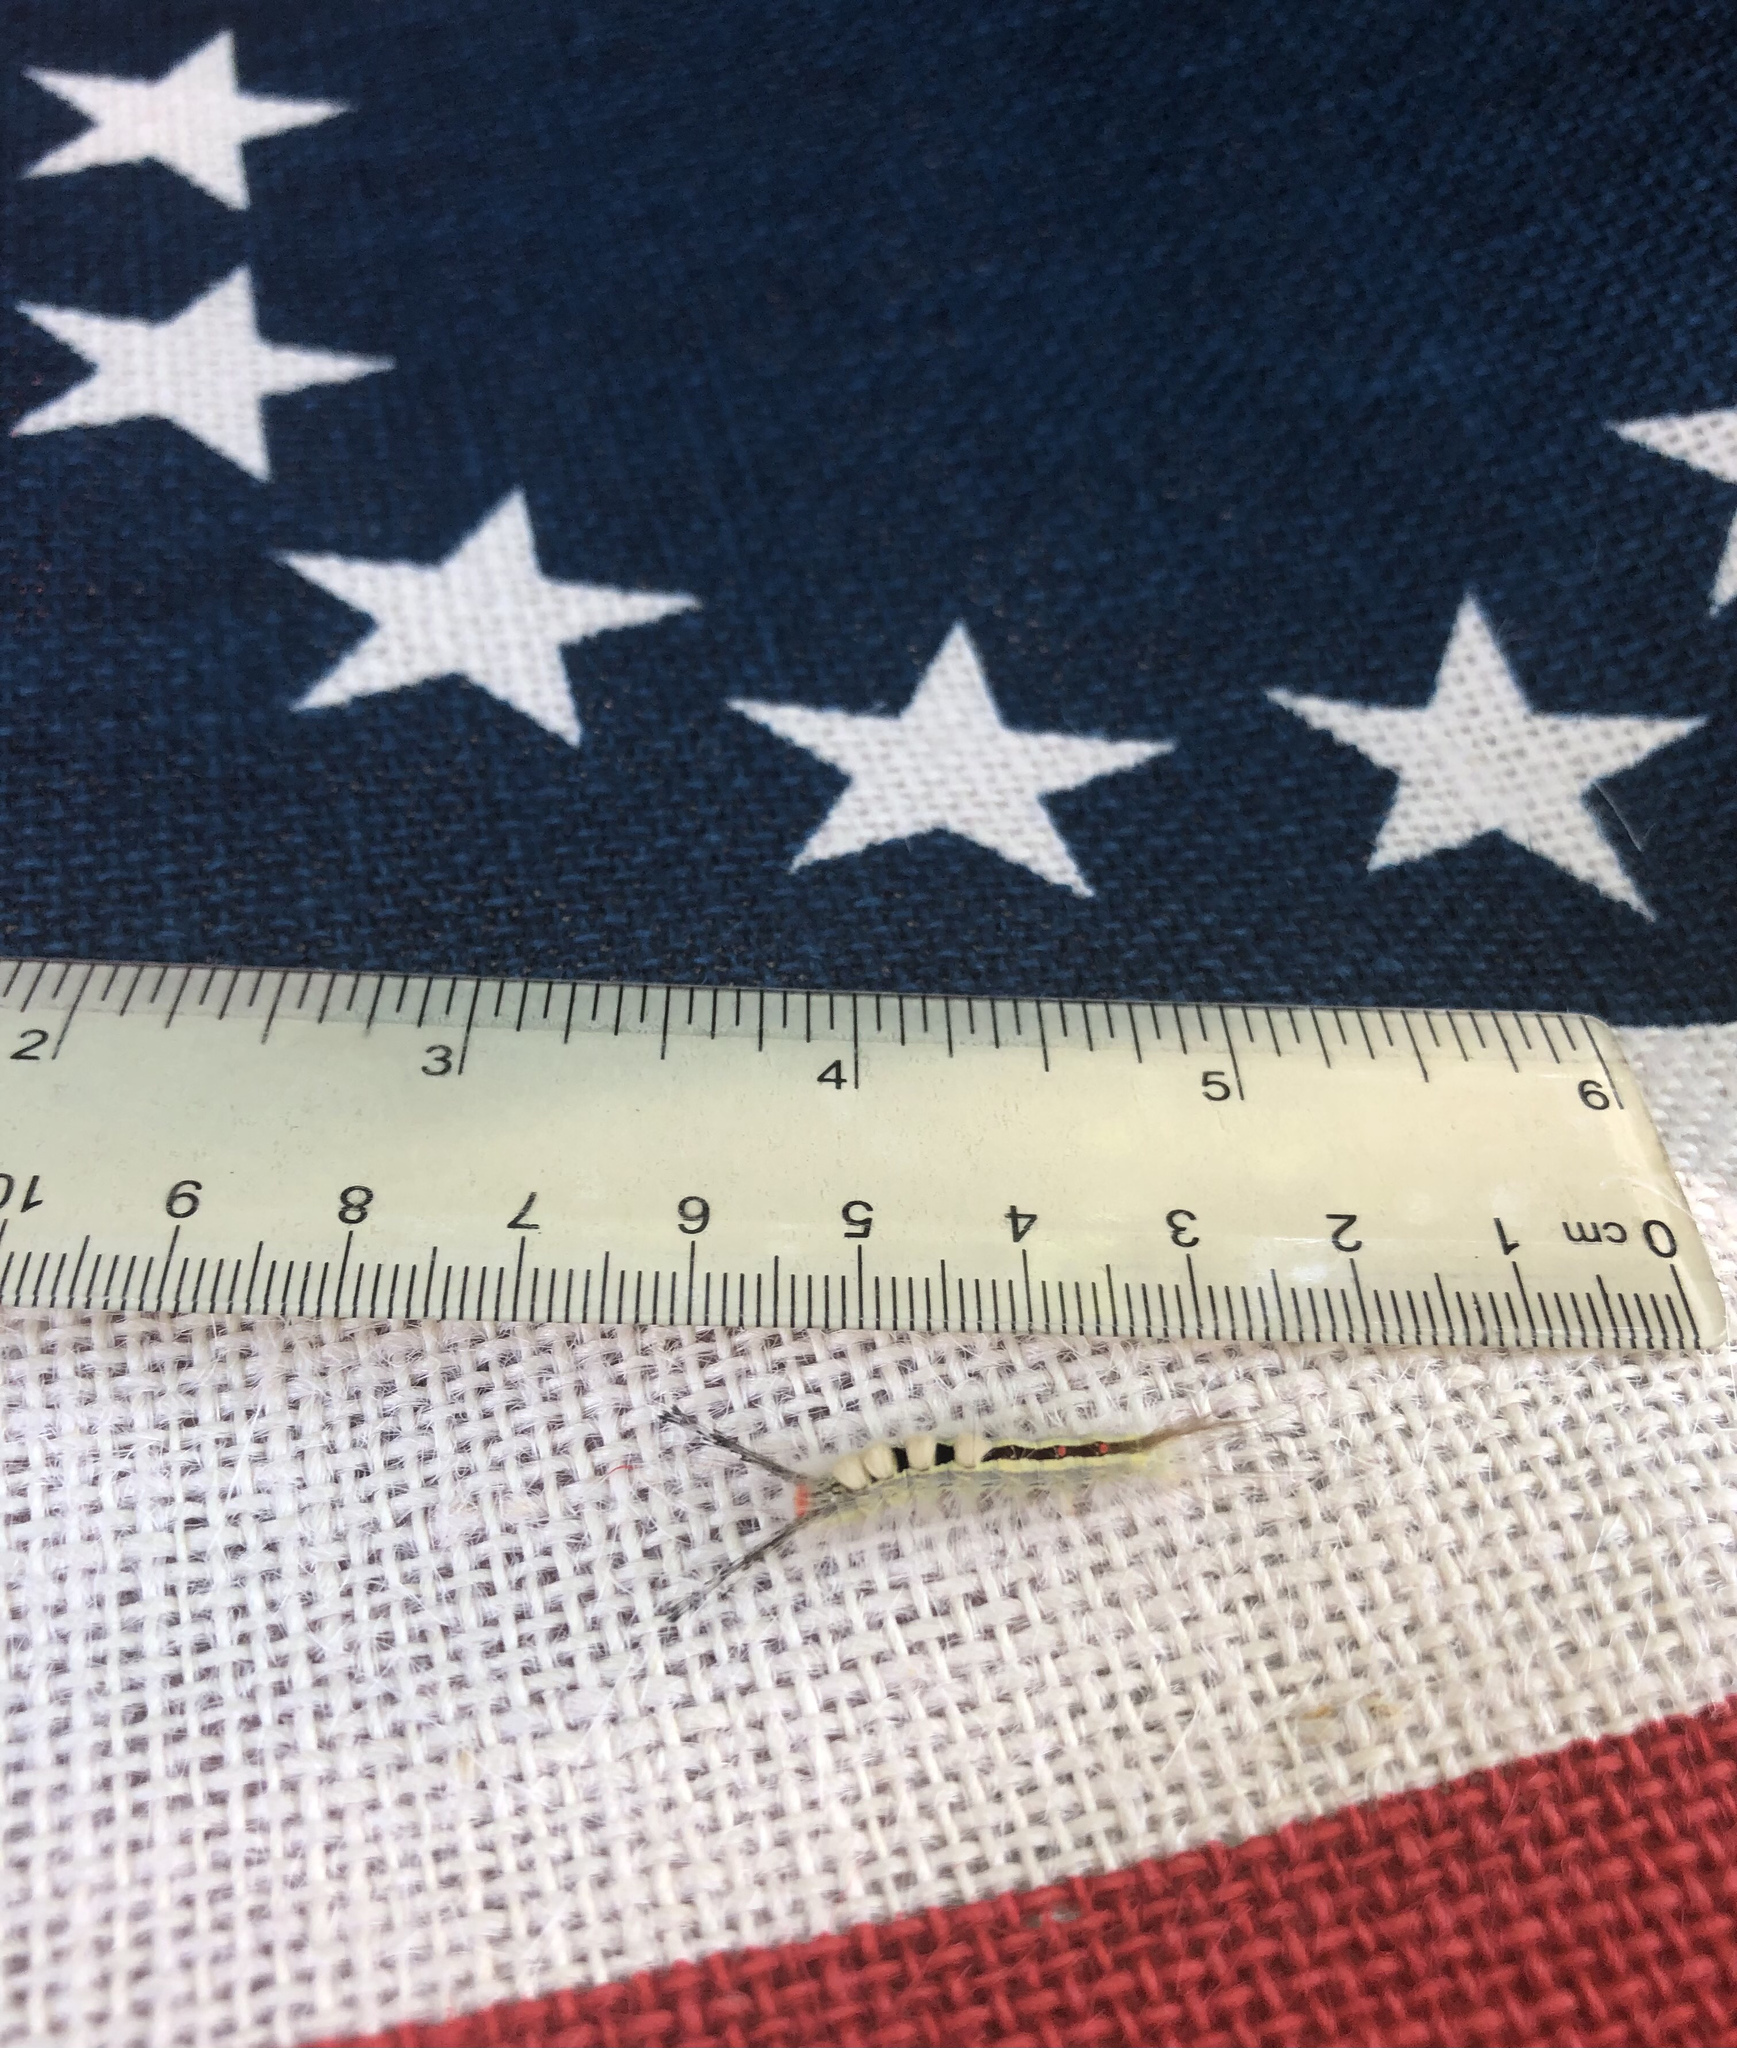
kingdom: Animalia
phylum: Arthropoda
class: Insecta
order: Lepidoptera
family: Erebidae
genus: Orgyia
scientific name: Orgyia leucostigma
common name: White-marked tussock moth
